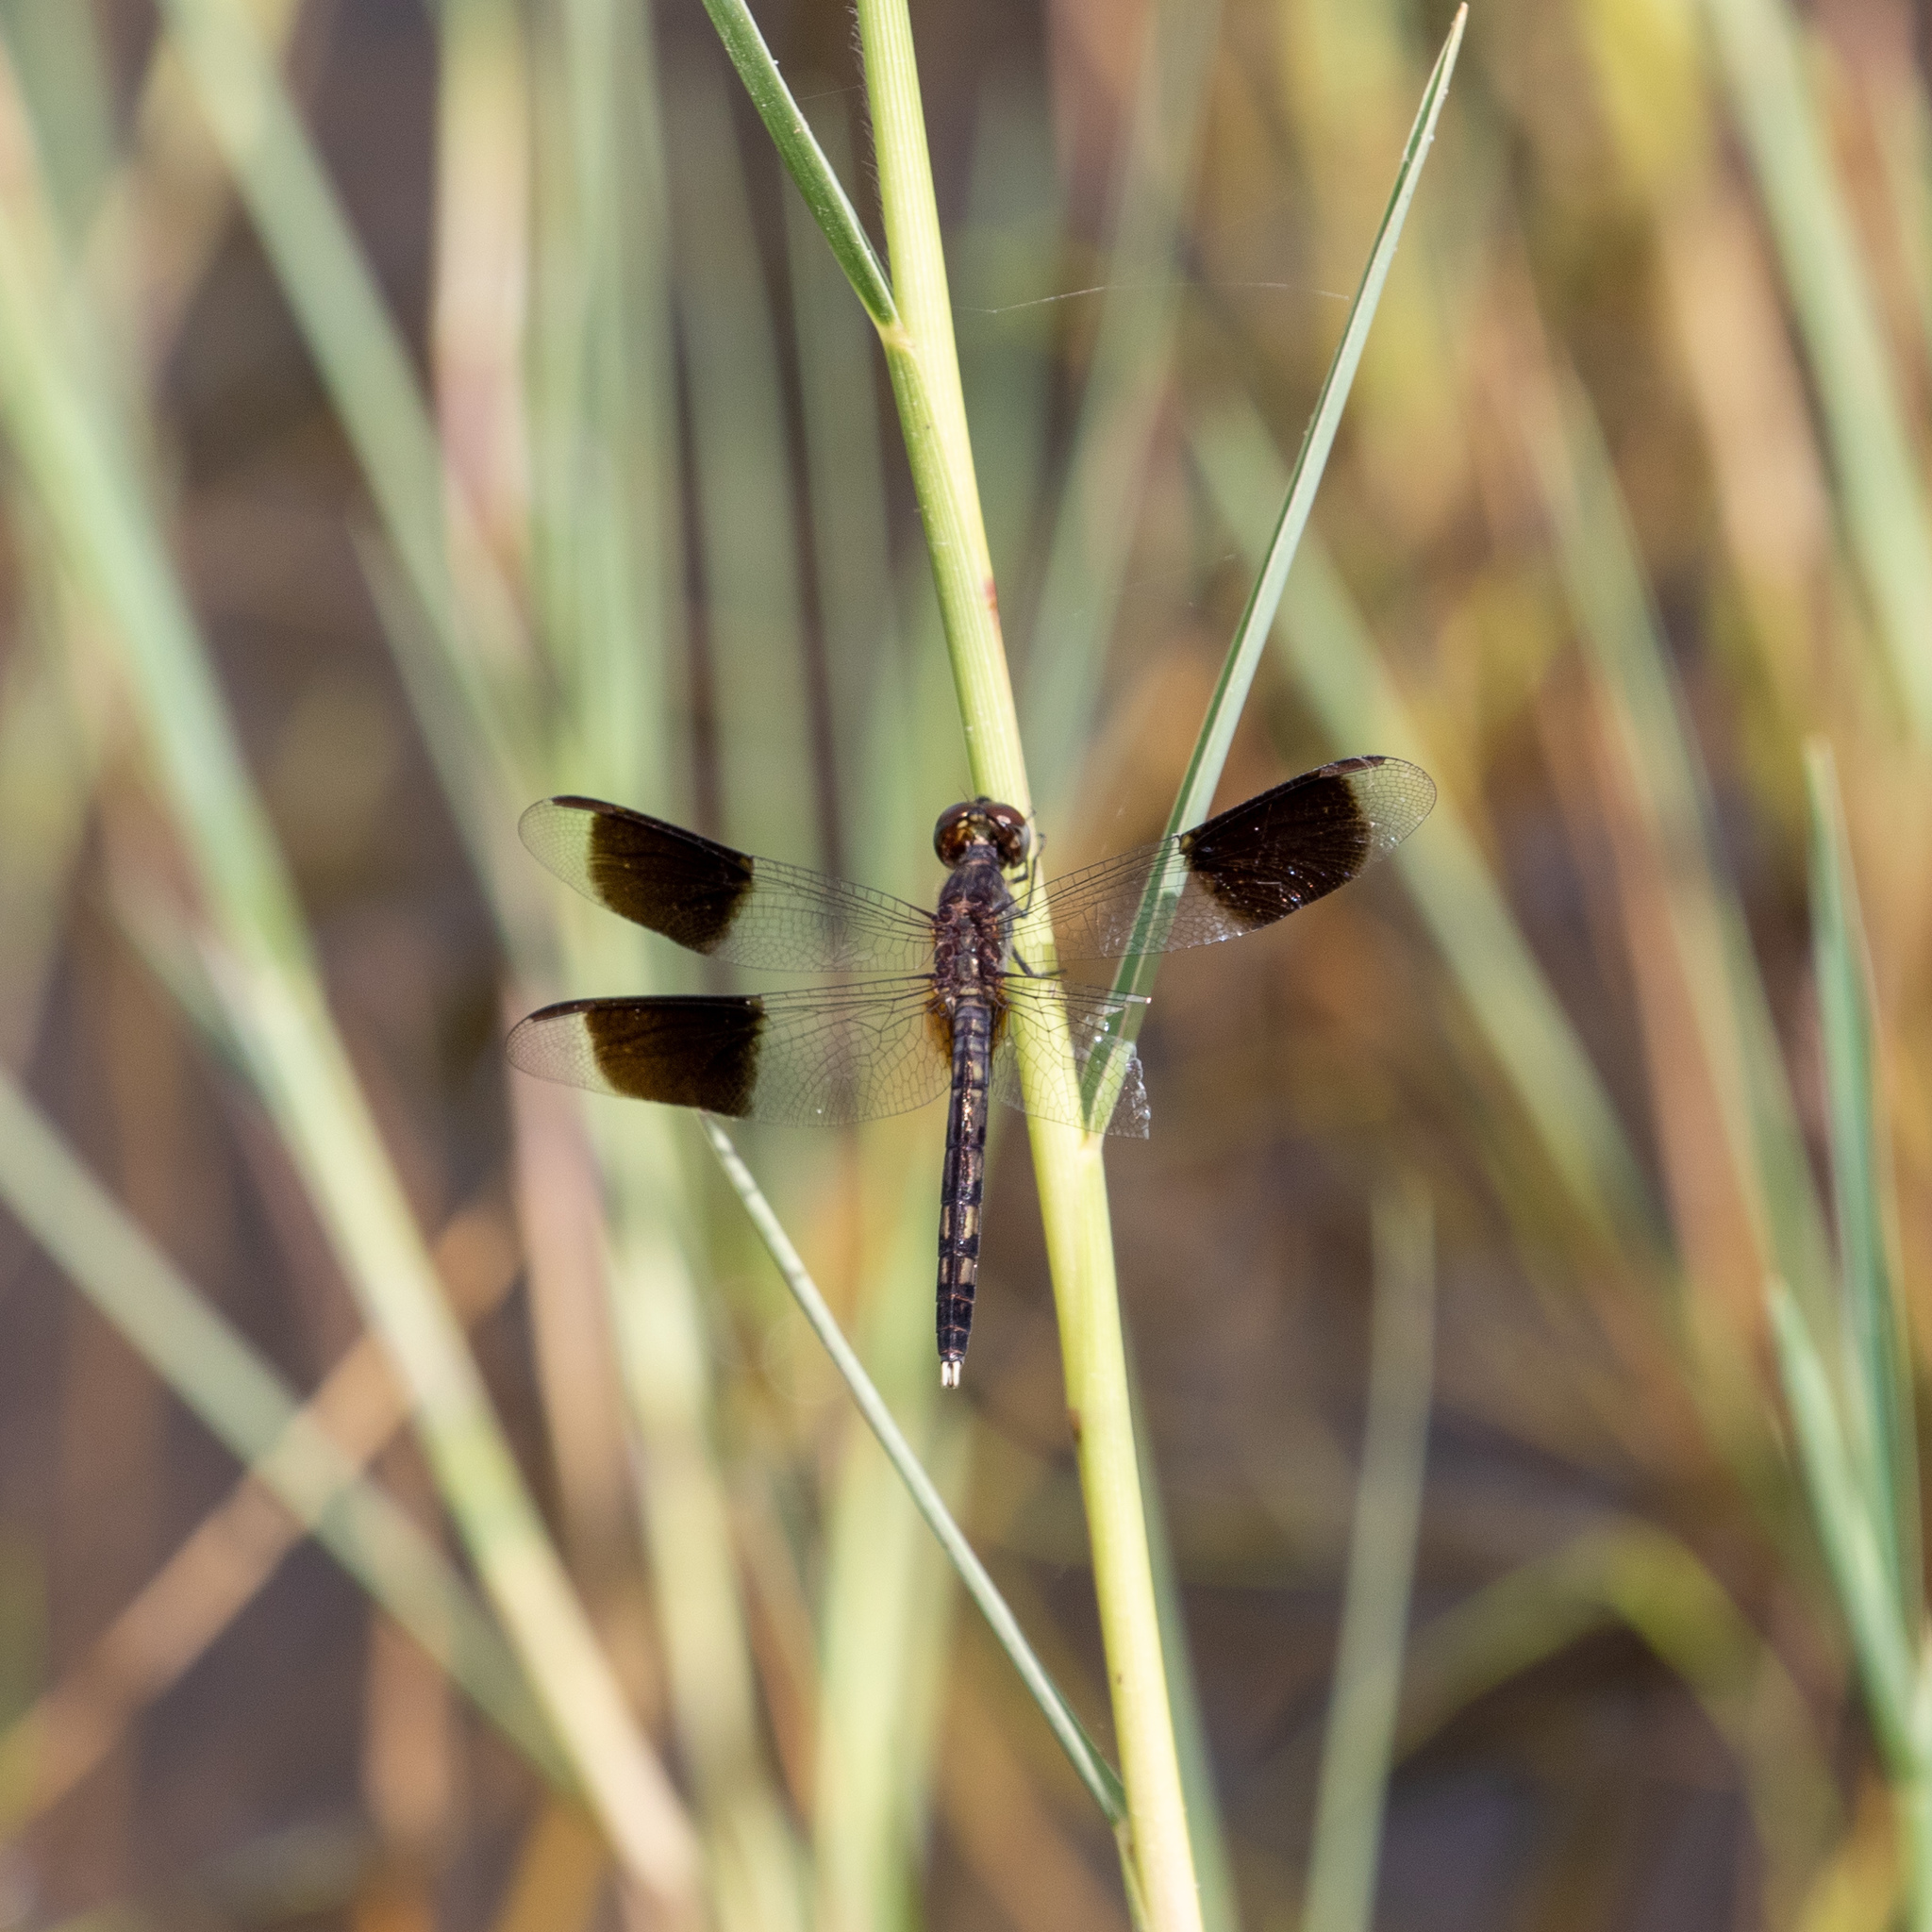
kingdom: Animalia
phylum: Arthropoda
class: Insecta
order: Odonata
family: Libellulidae
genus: Erythrodiplax
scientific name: Erythrodiplax umbrata
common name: Band-winged dragonlet
